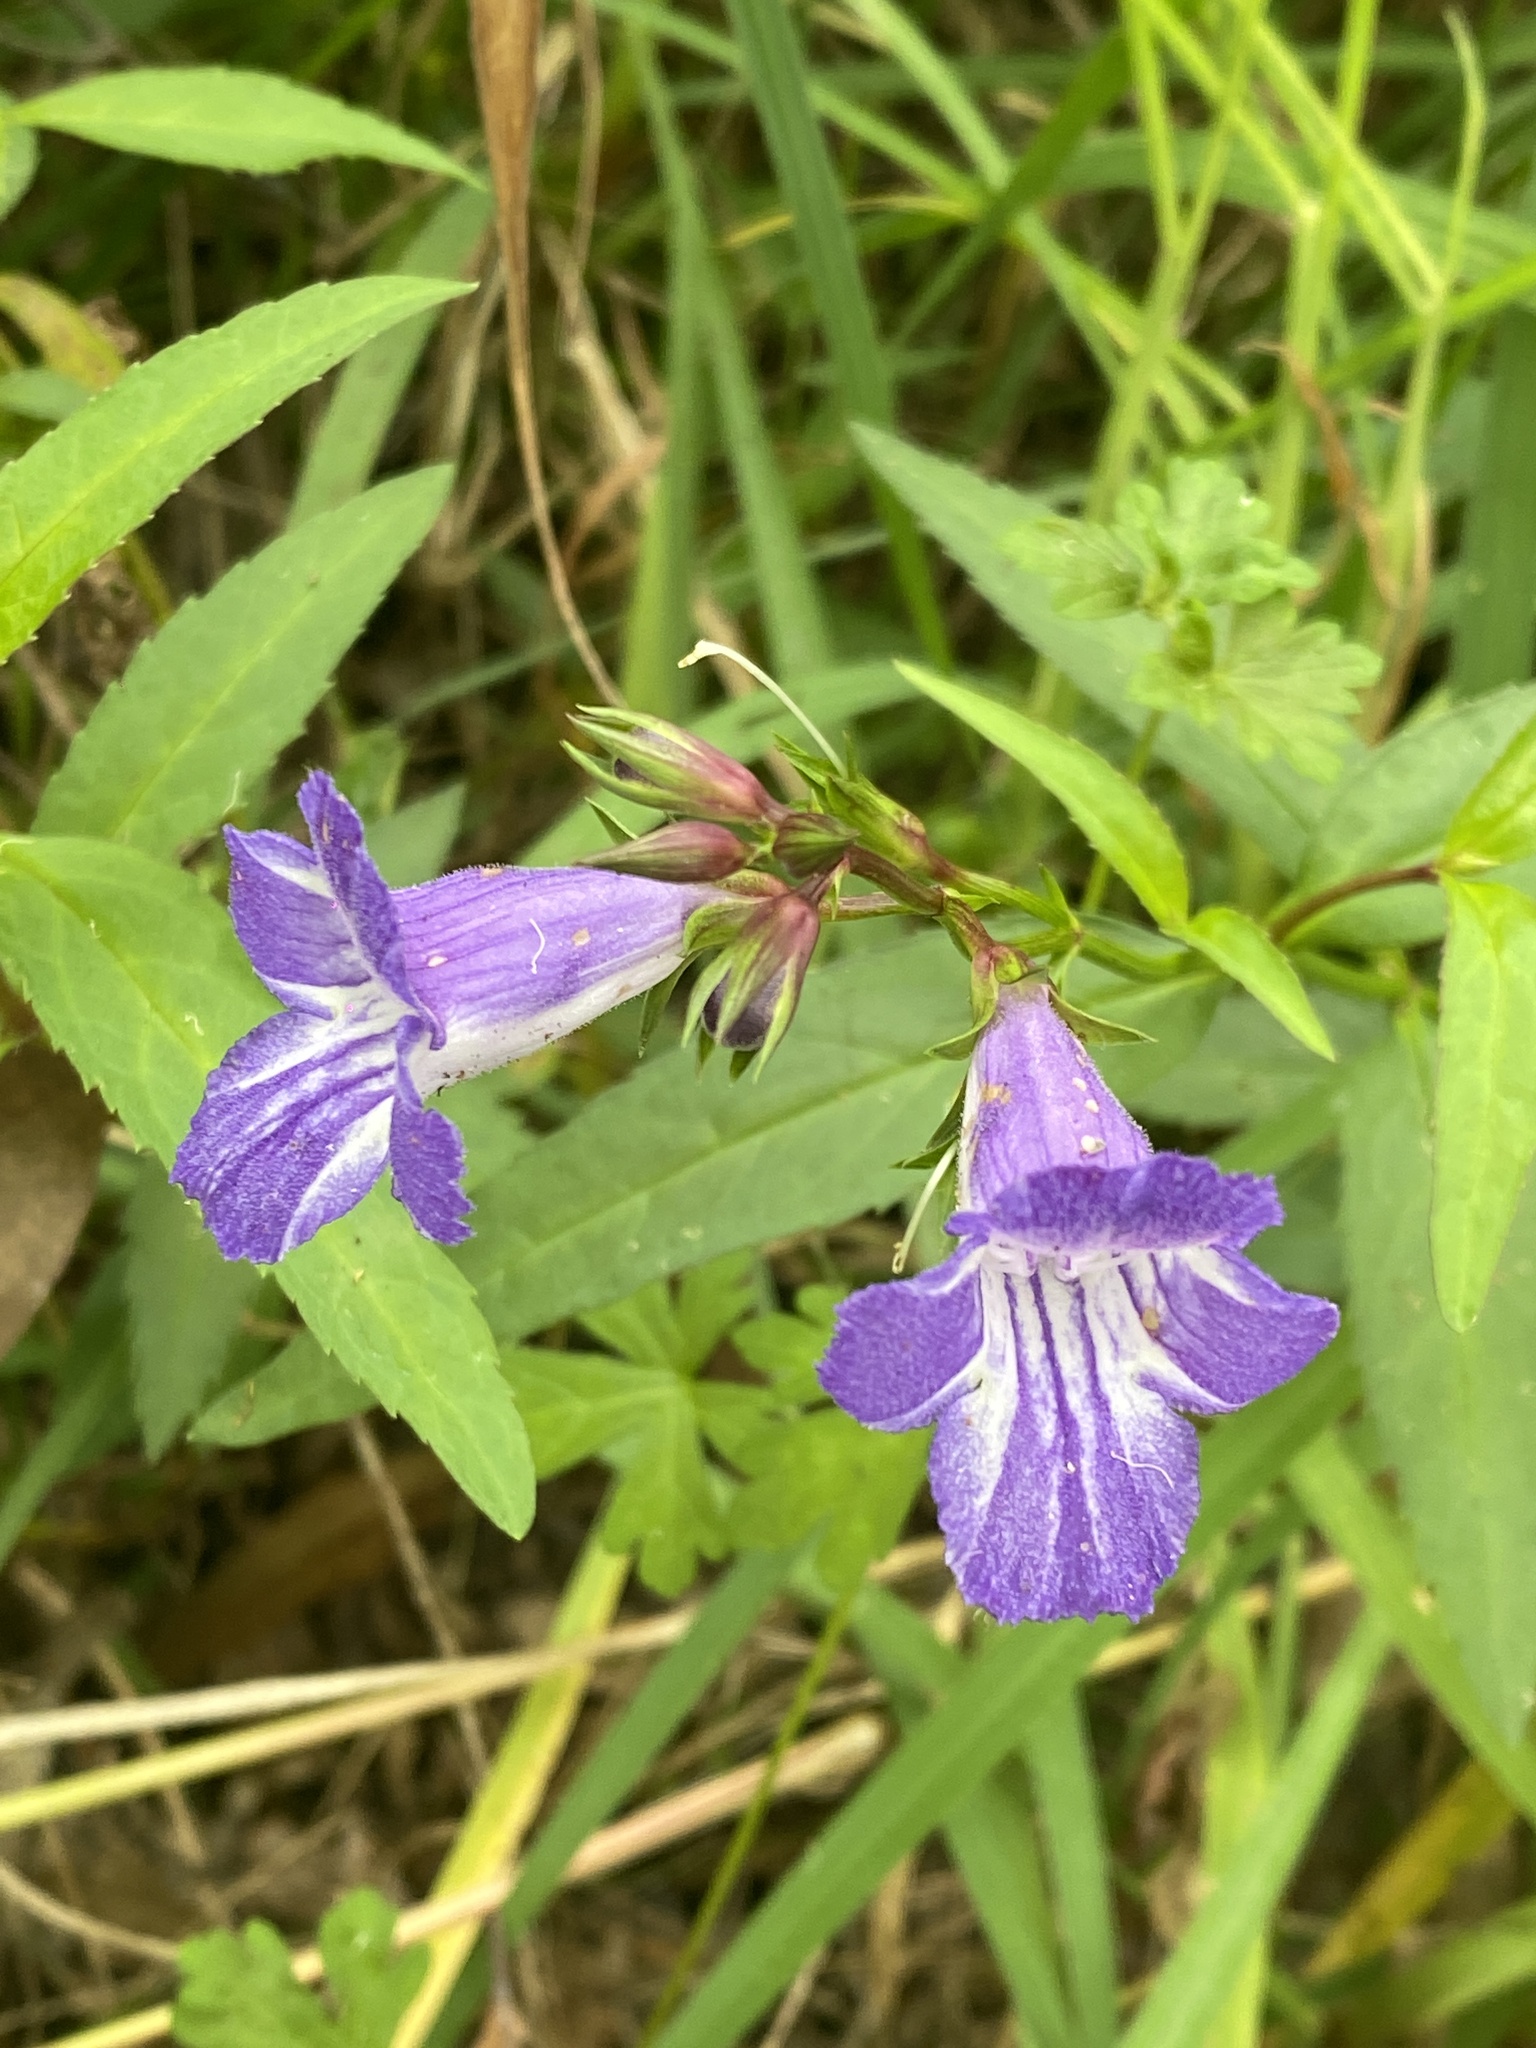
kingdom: Plantae
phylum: Tracheophyta
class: Magnoliopsida
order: Lamiales
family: Linderniaceae
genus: Artanema
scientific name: Artanema fimbriatum
